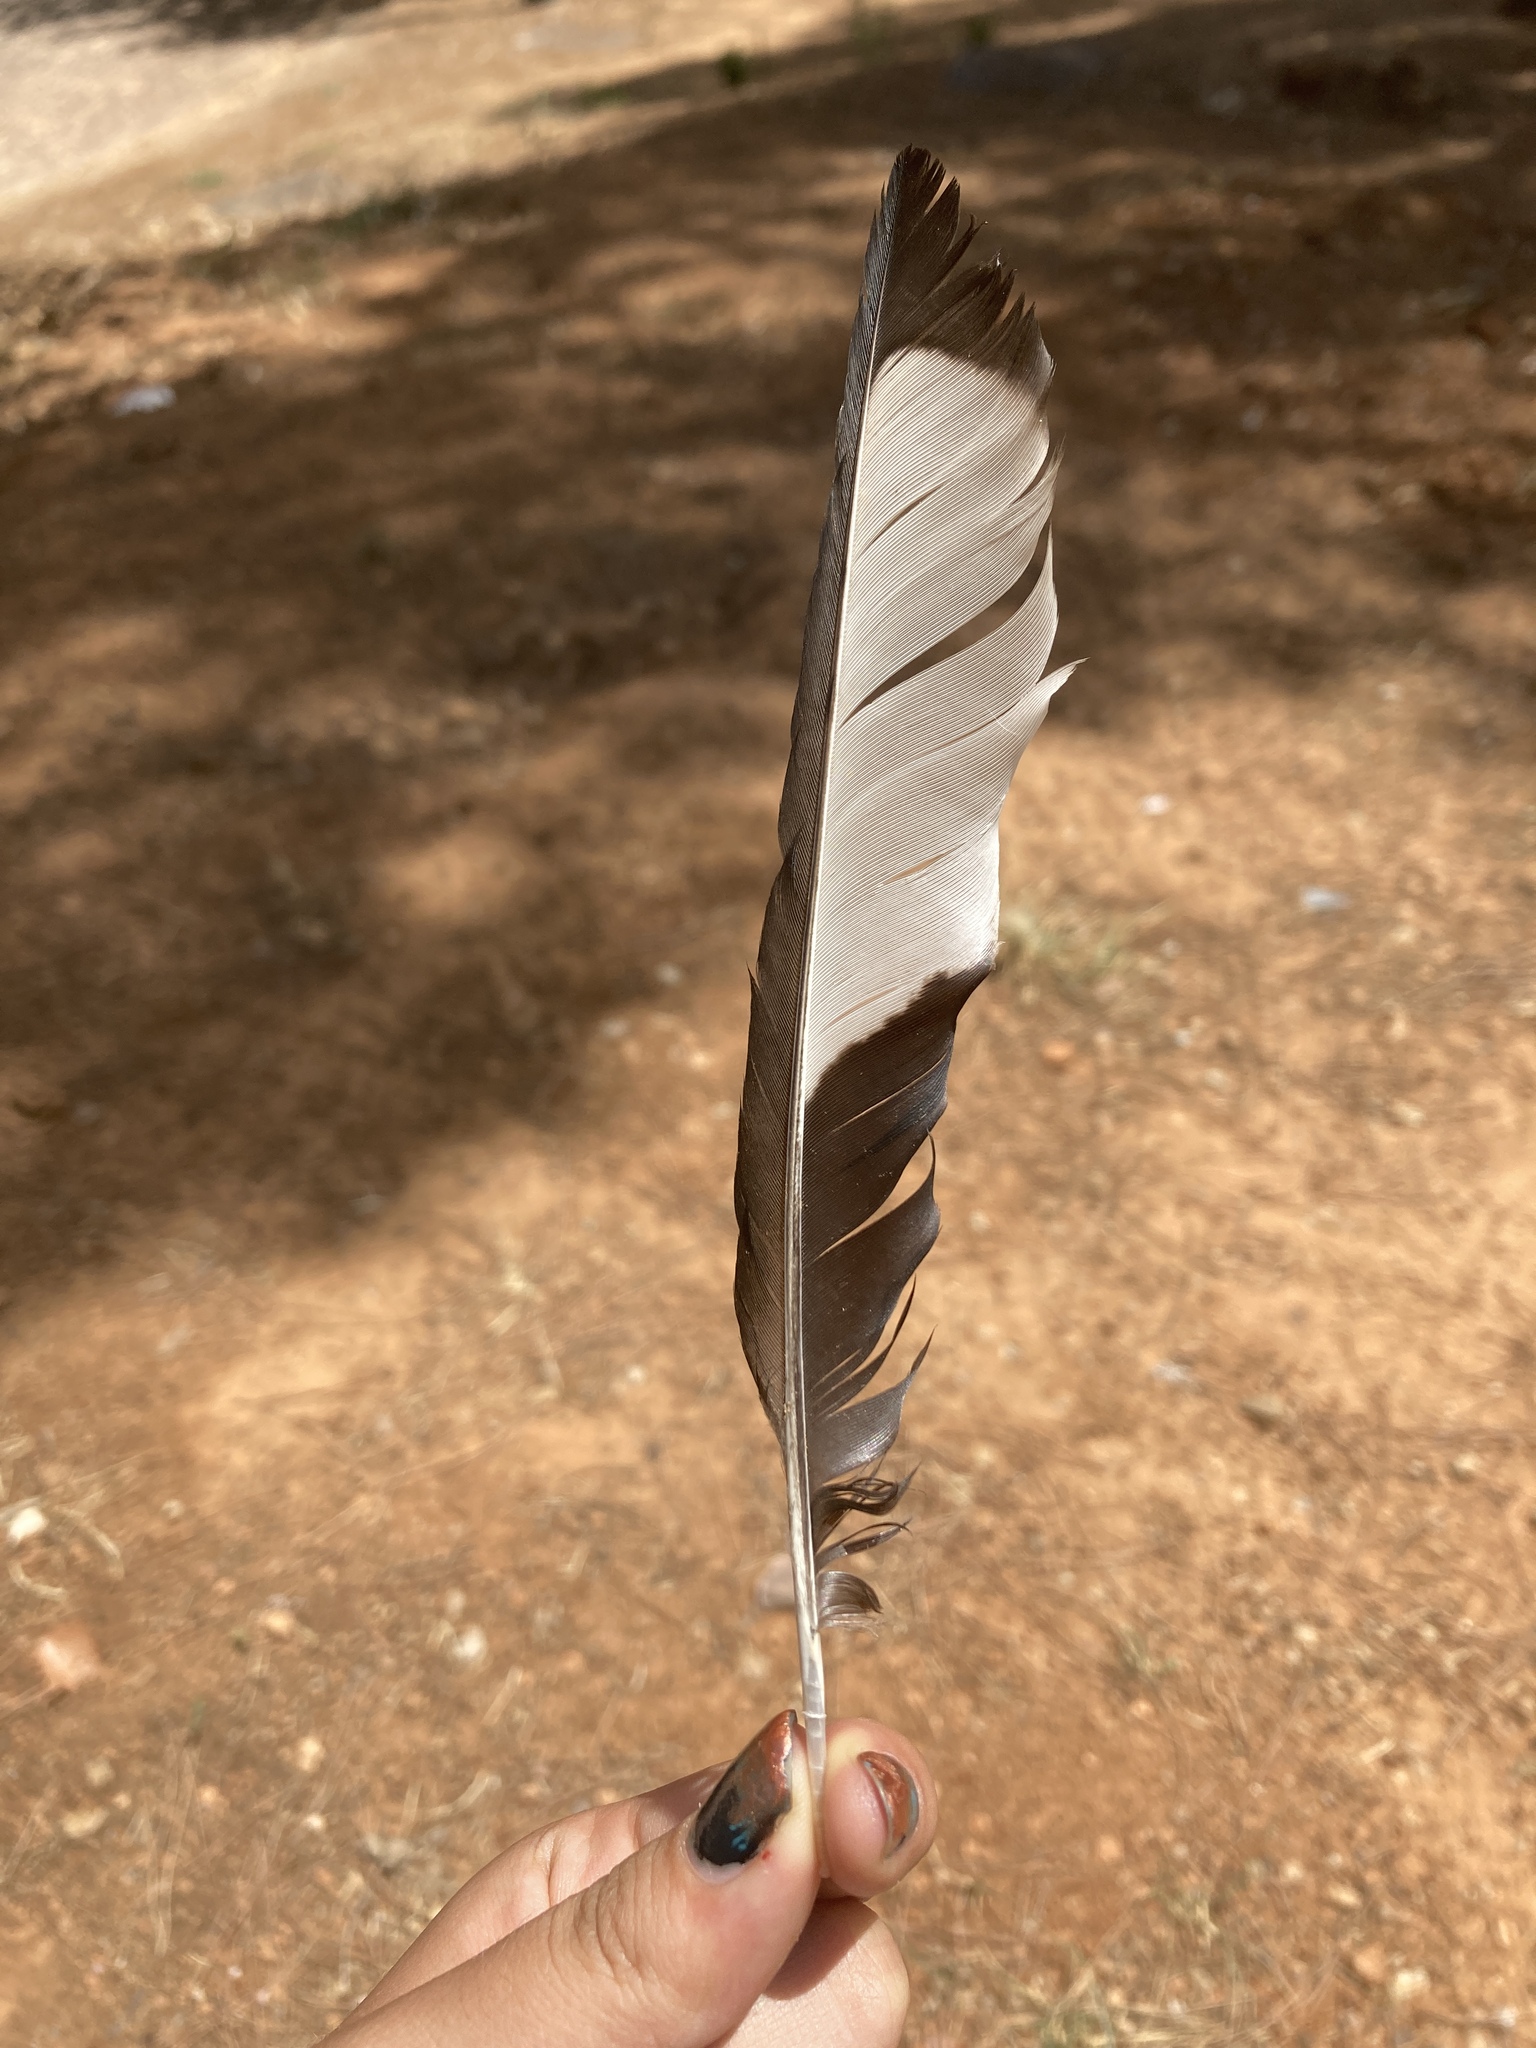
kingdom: Animalia
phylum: Chordata
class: Aves
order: Passeriformes
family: Corvidae
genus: Pica
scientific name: Pica pica
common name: Eurasian magpie
